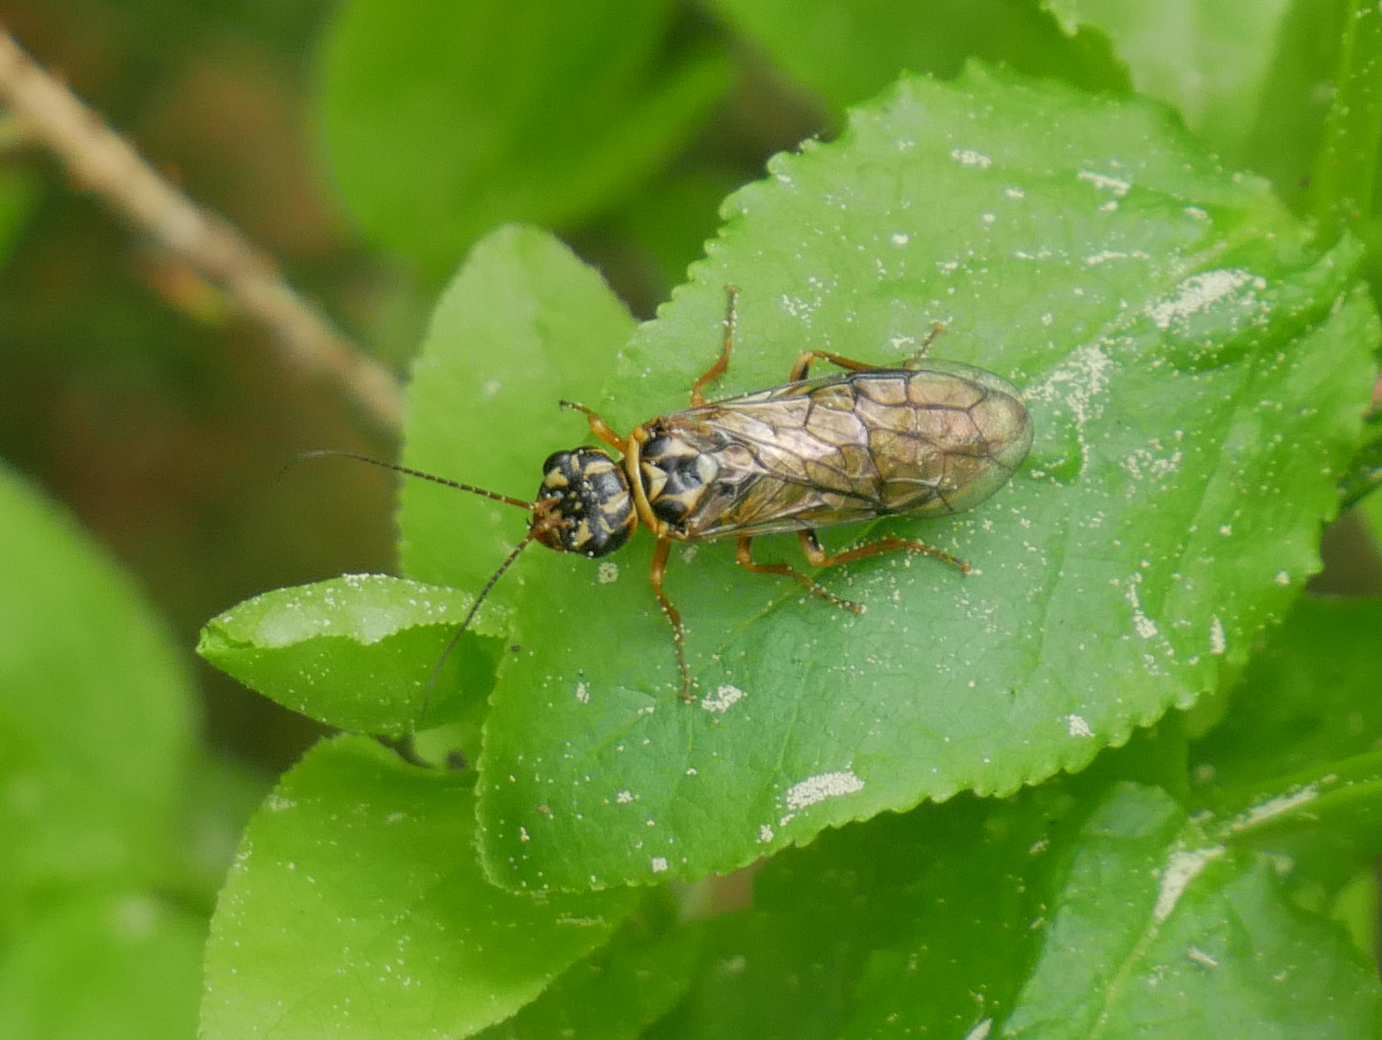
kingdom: Animalia
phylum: Arthropoda
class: Insecta
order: Hymenoptera
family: Pamphiliidae
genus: Acantholyda
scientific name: Acantholyda posticalis
